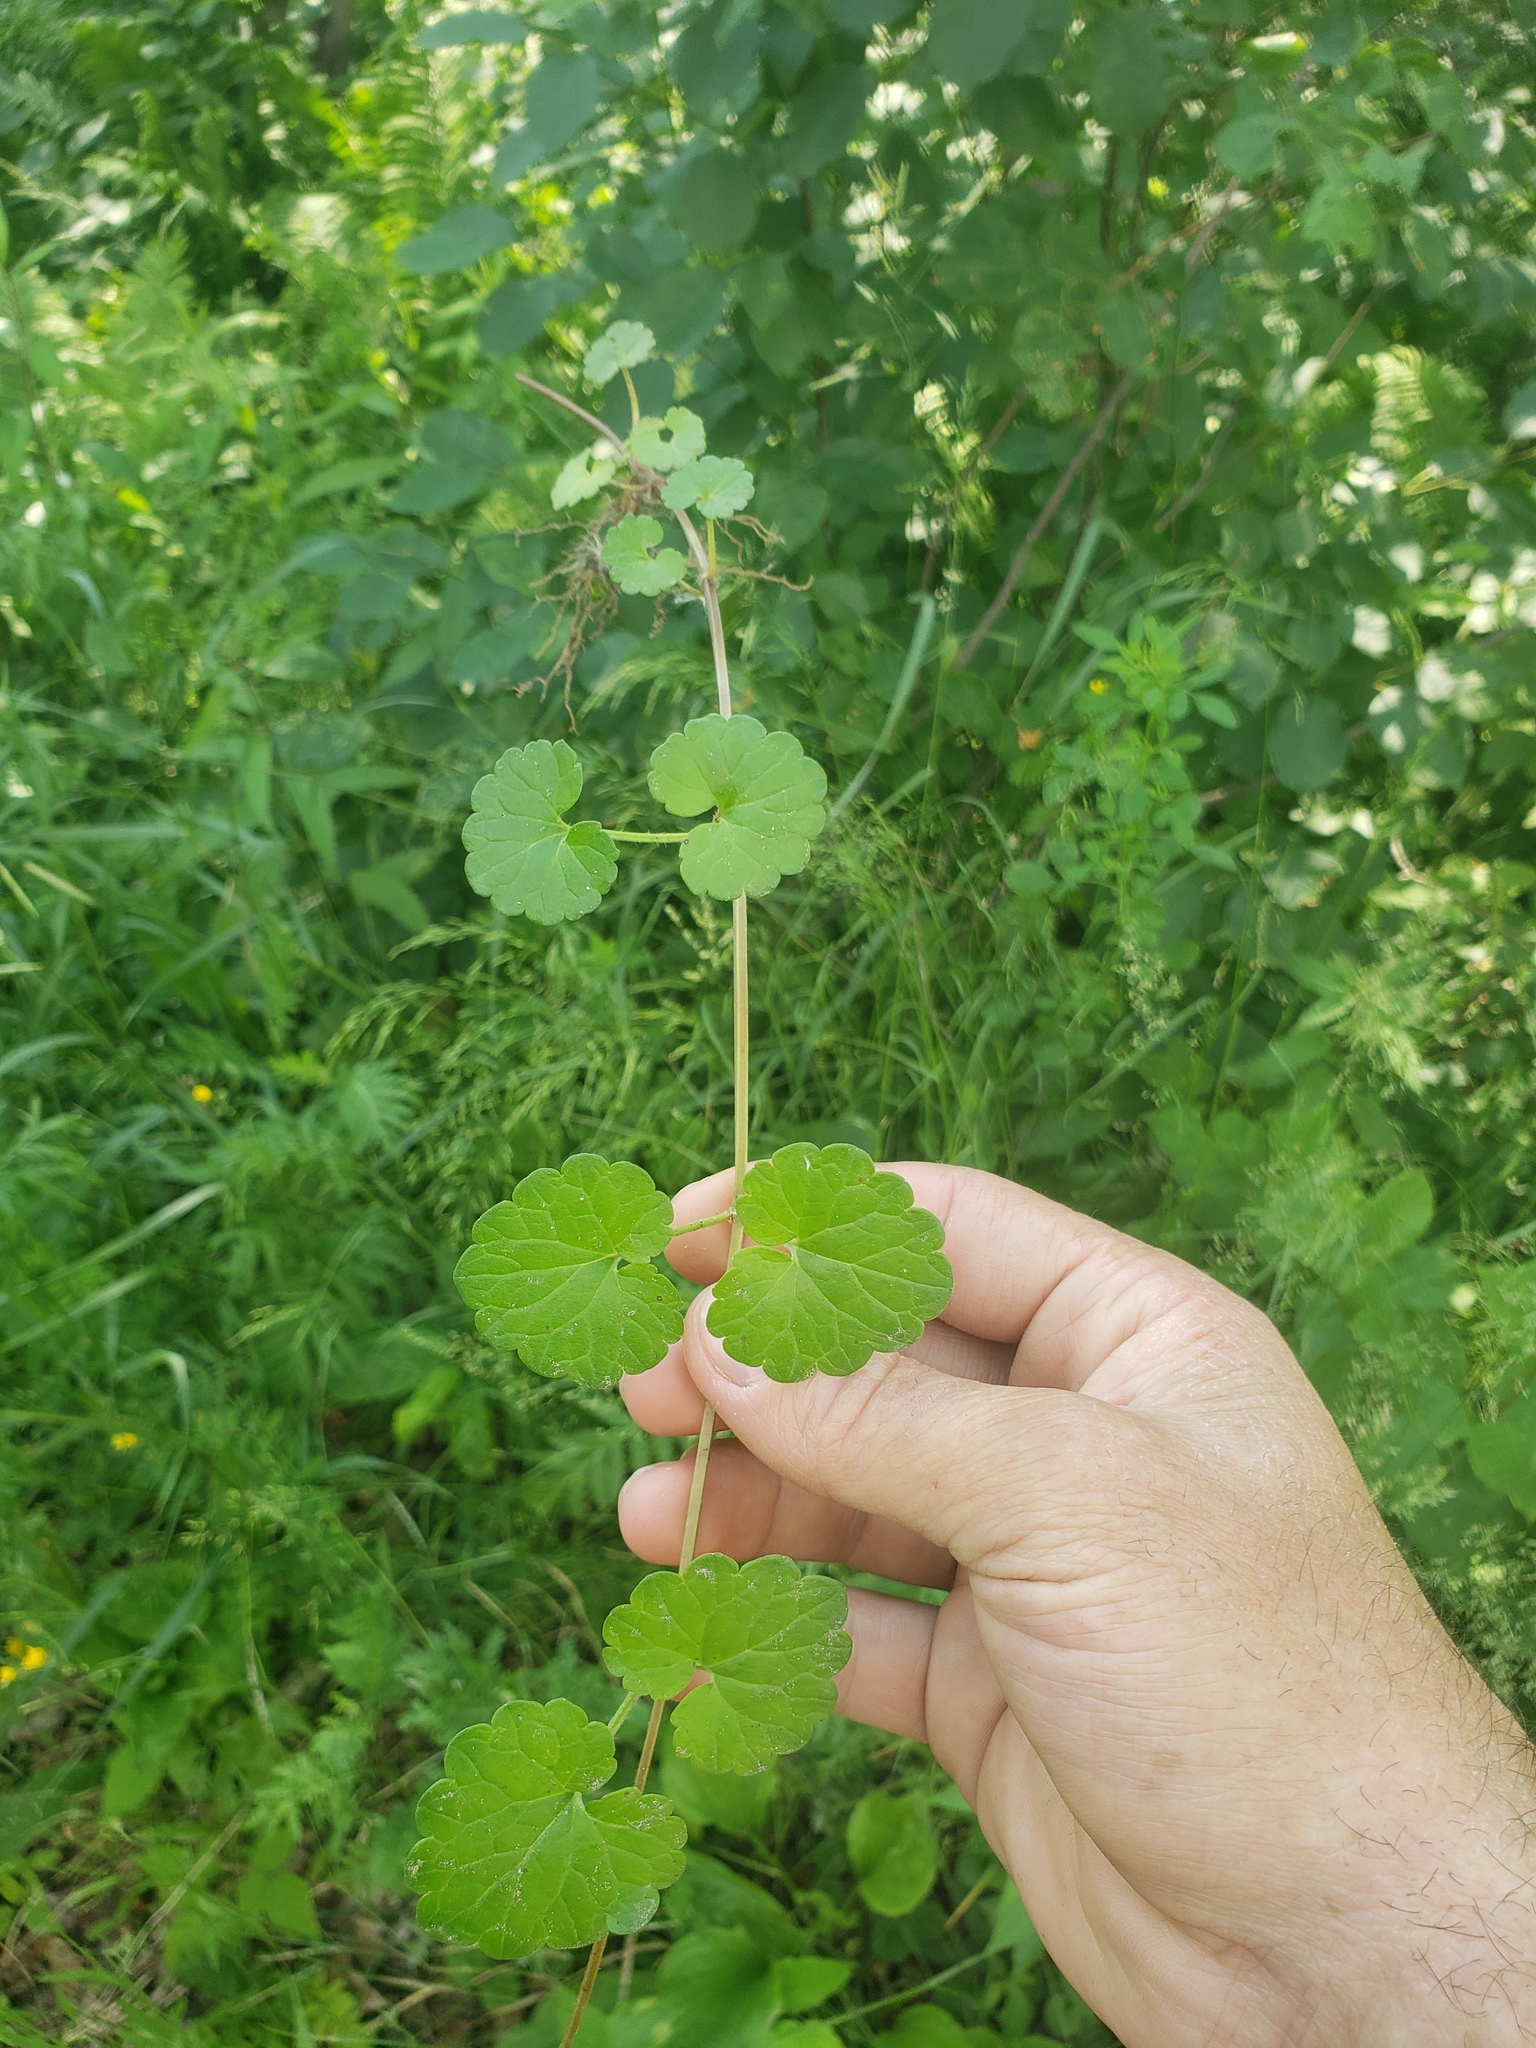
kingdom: Plantae
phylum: Tracheophyta
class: Magnoliopsida
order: Lamiales
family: Lamiaceae
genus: Glechoma
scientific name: Glechoma hederacea
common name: Ground ivy
